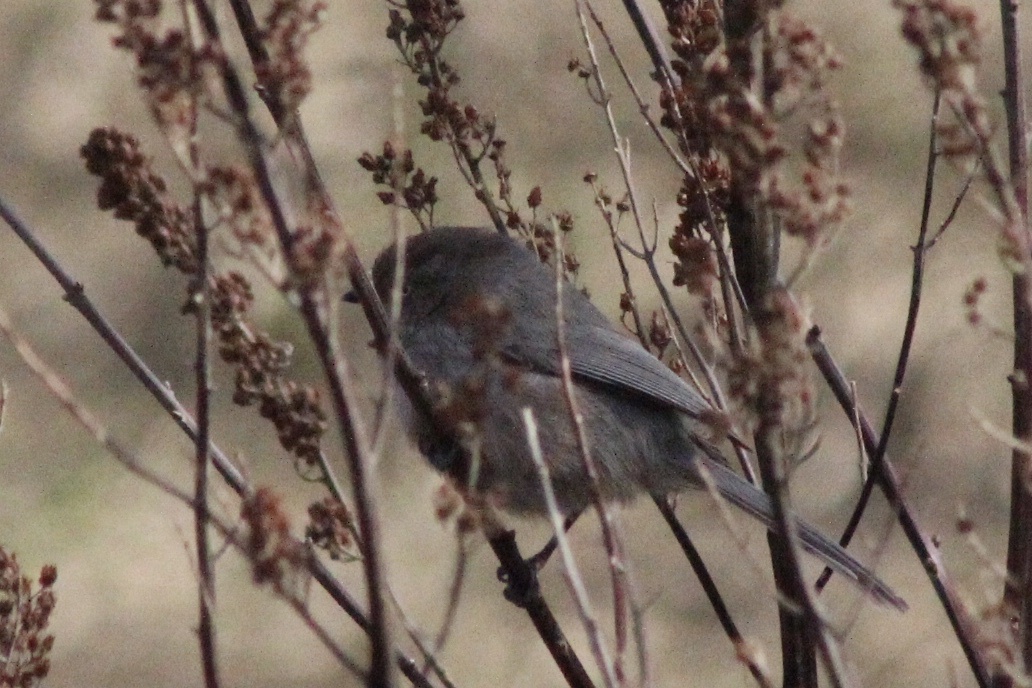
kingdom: Animalia
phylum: Chordata
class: Aves
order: Passeriformes
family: Aegithalidae
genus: Psaltriparus
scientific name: Psaltriparus minimus
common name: American bushtit
